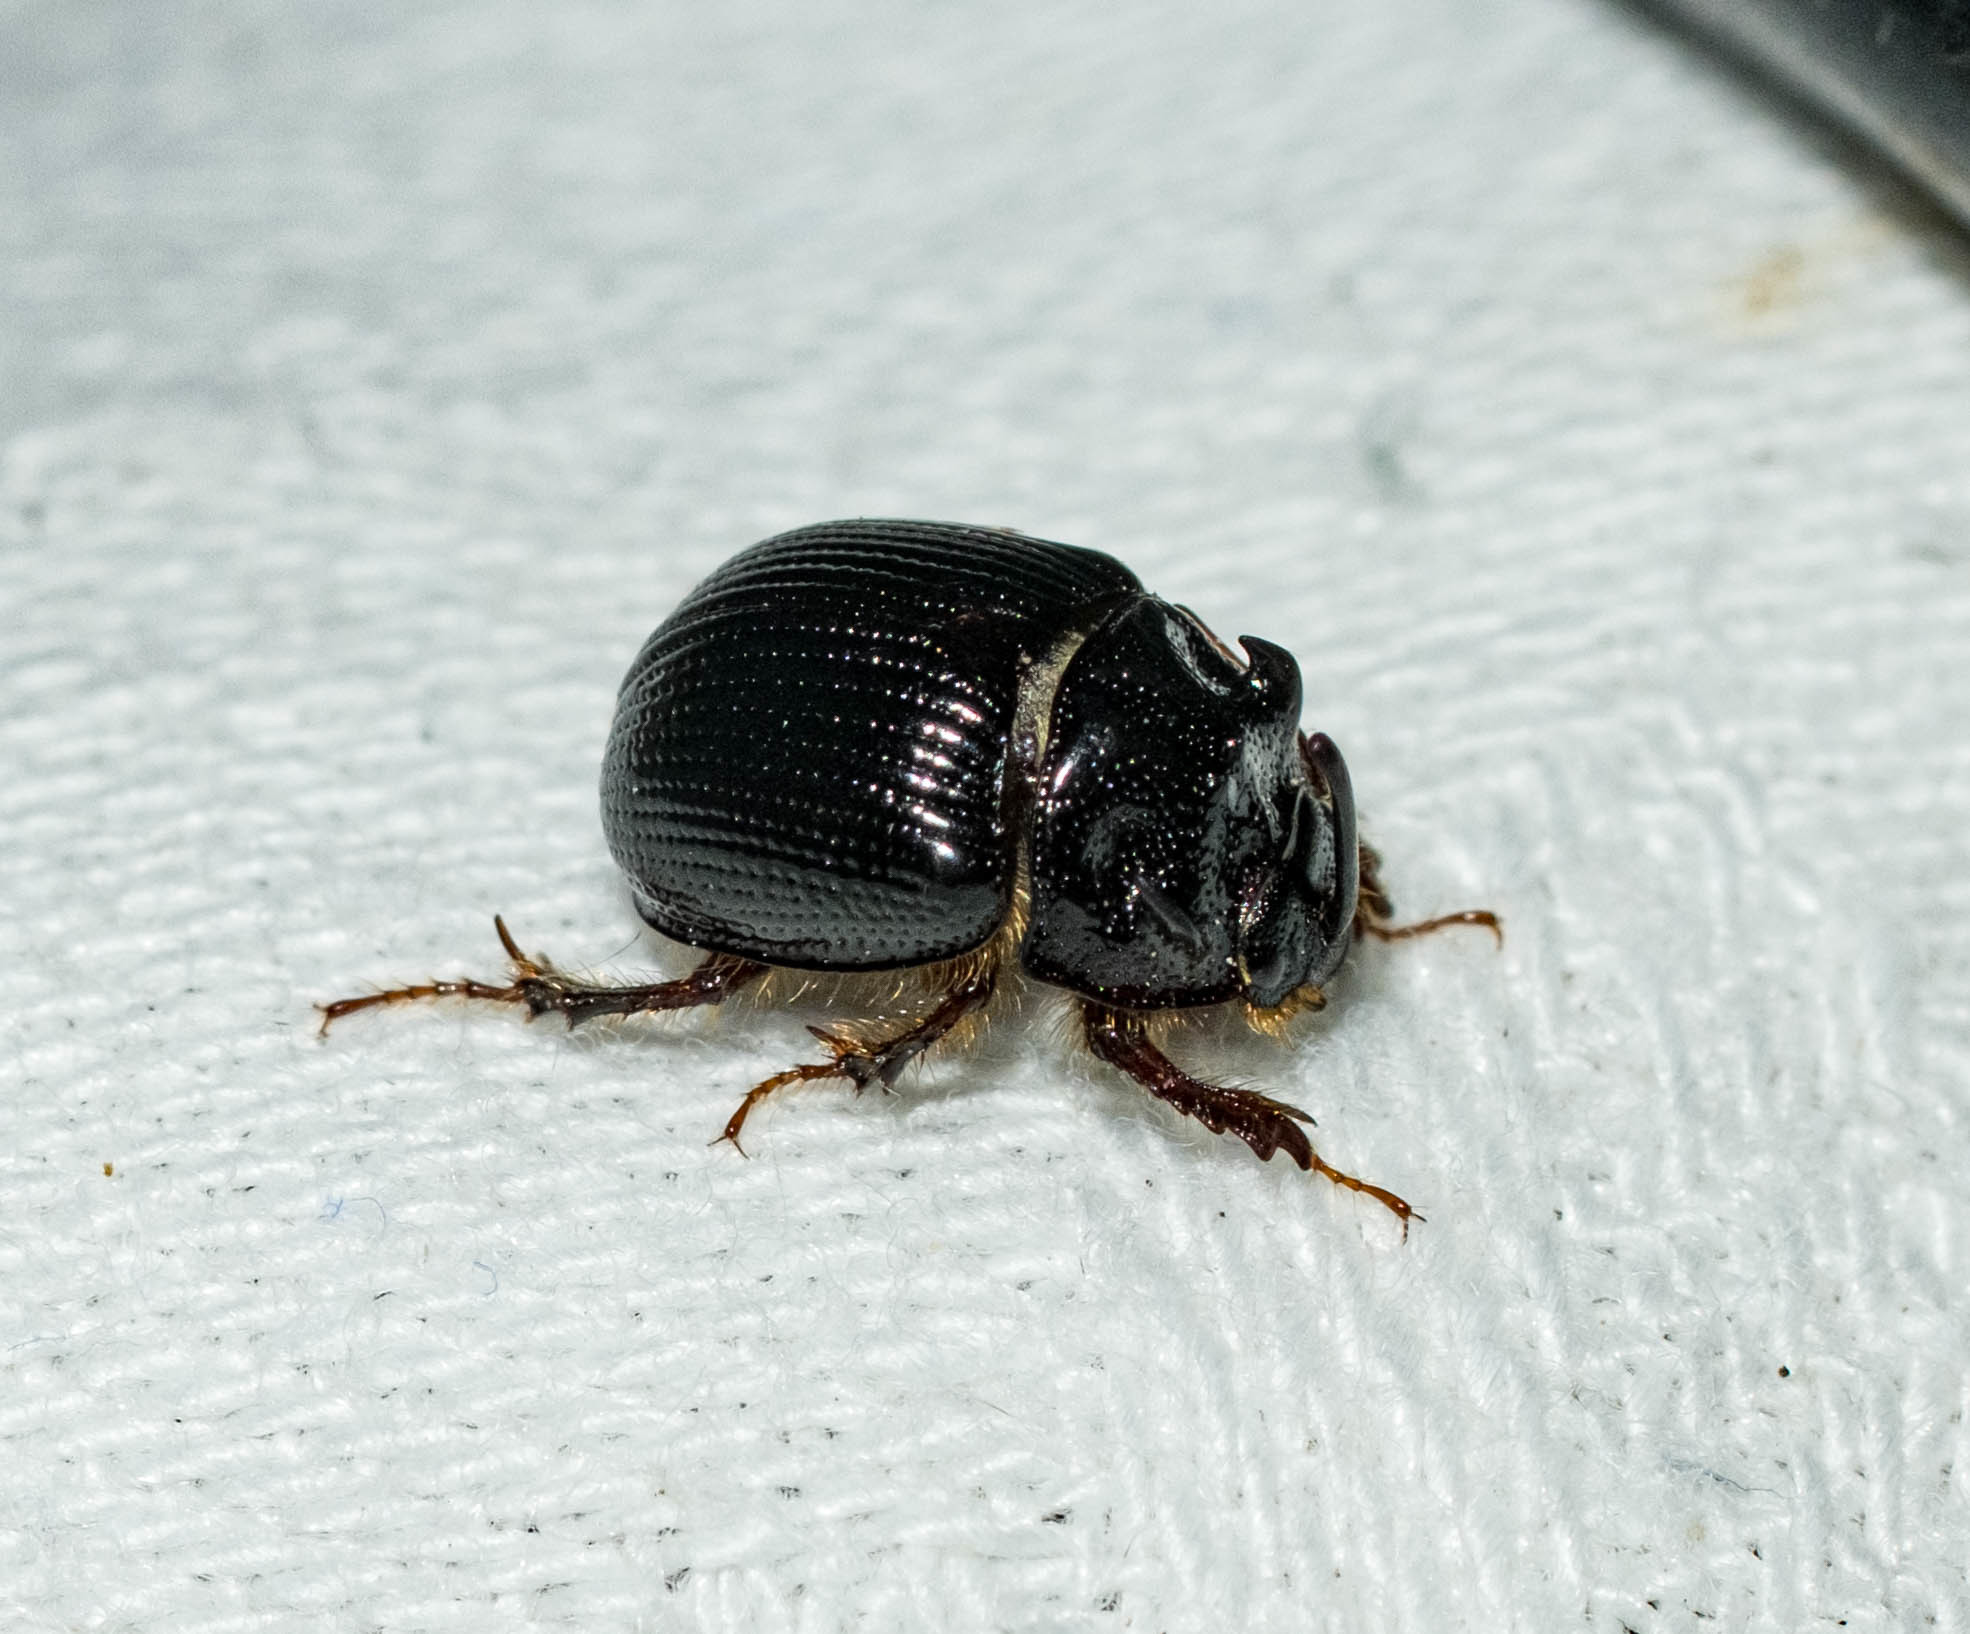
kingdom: Animalia
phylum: Arthropoda
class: Insecta
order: Coleoptera
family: Geotrupidae
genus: Odonteus
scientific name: Odonteus armiger
